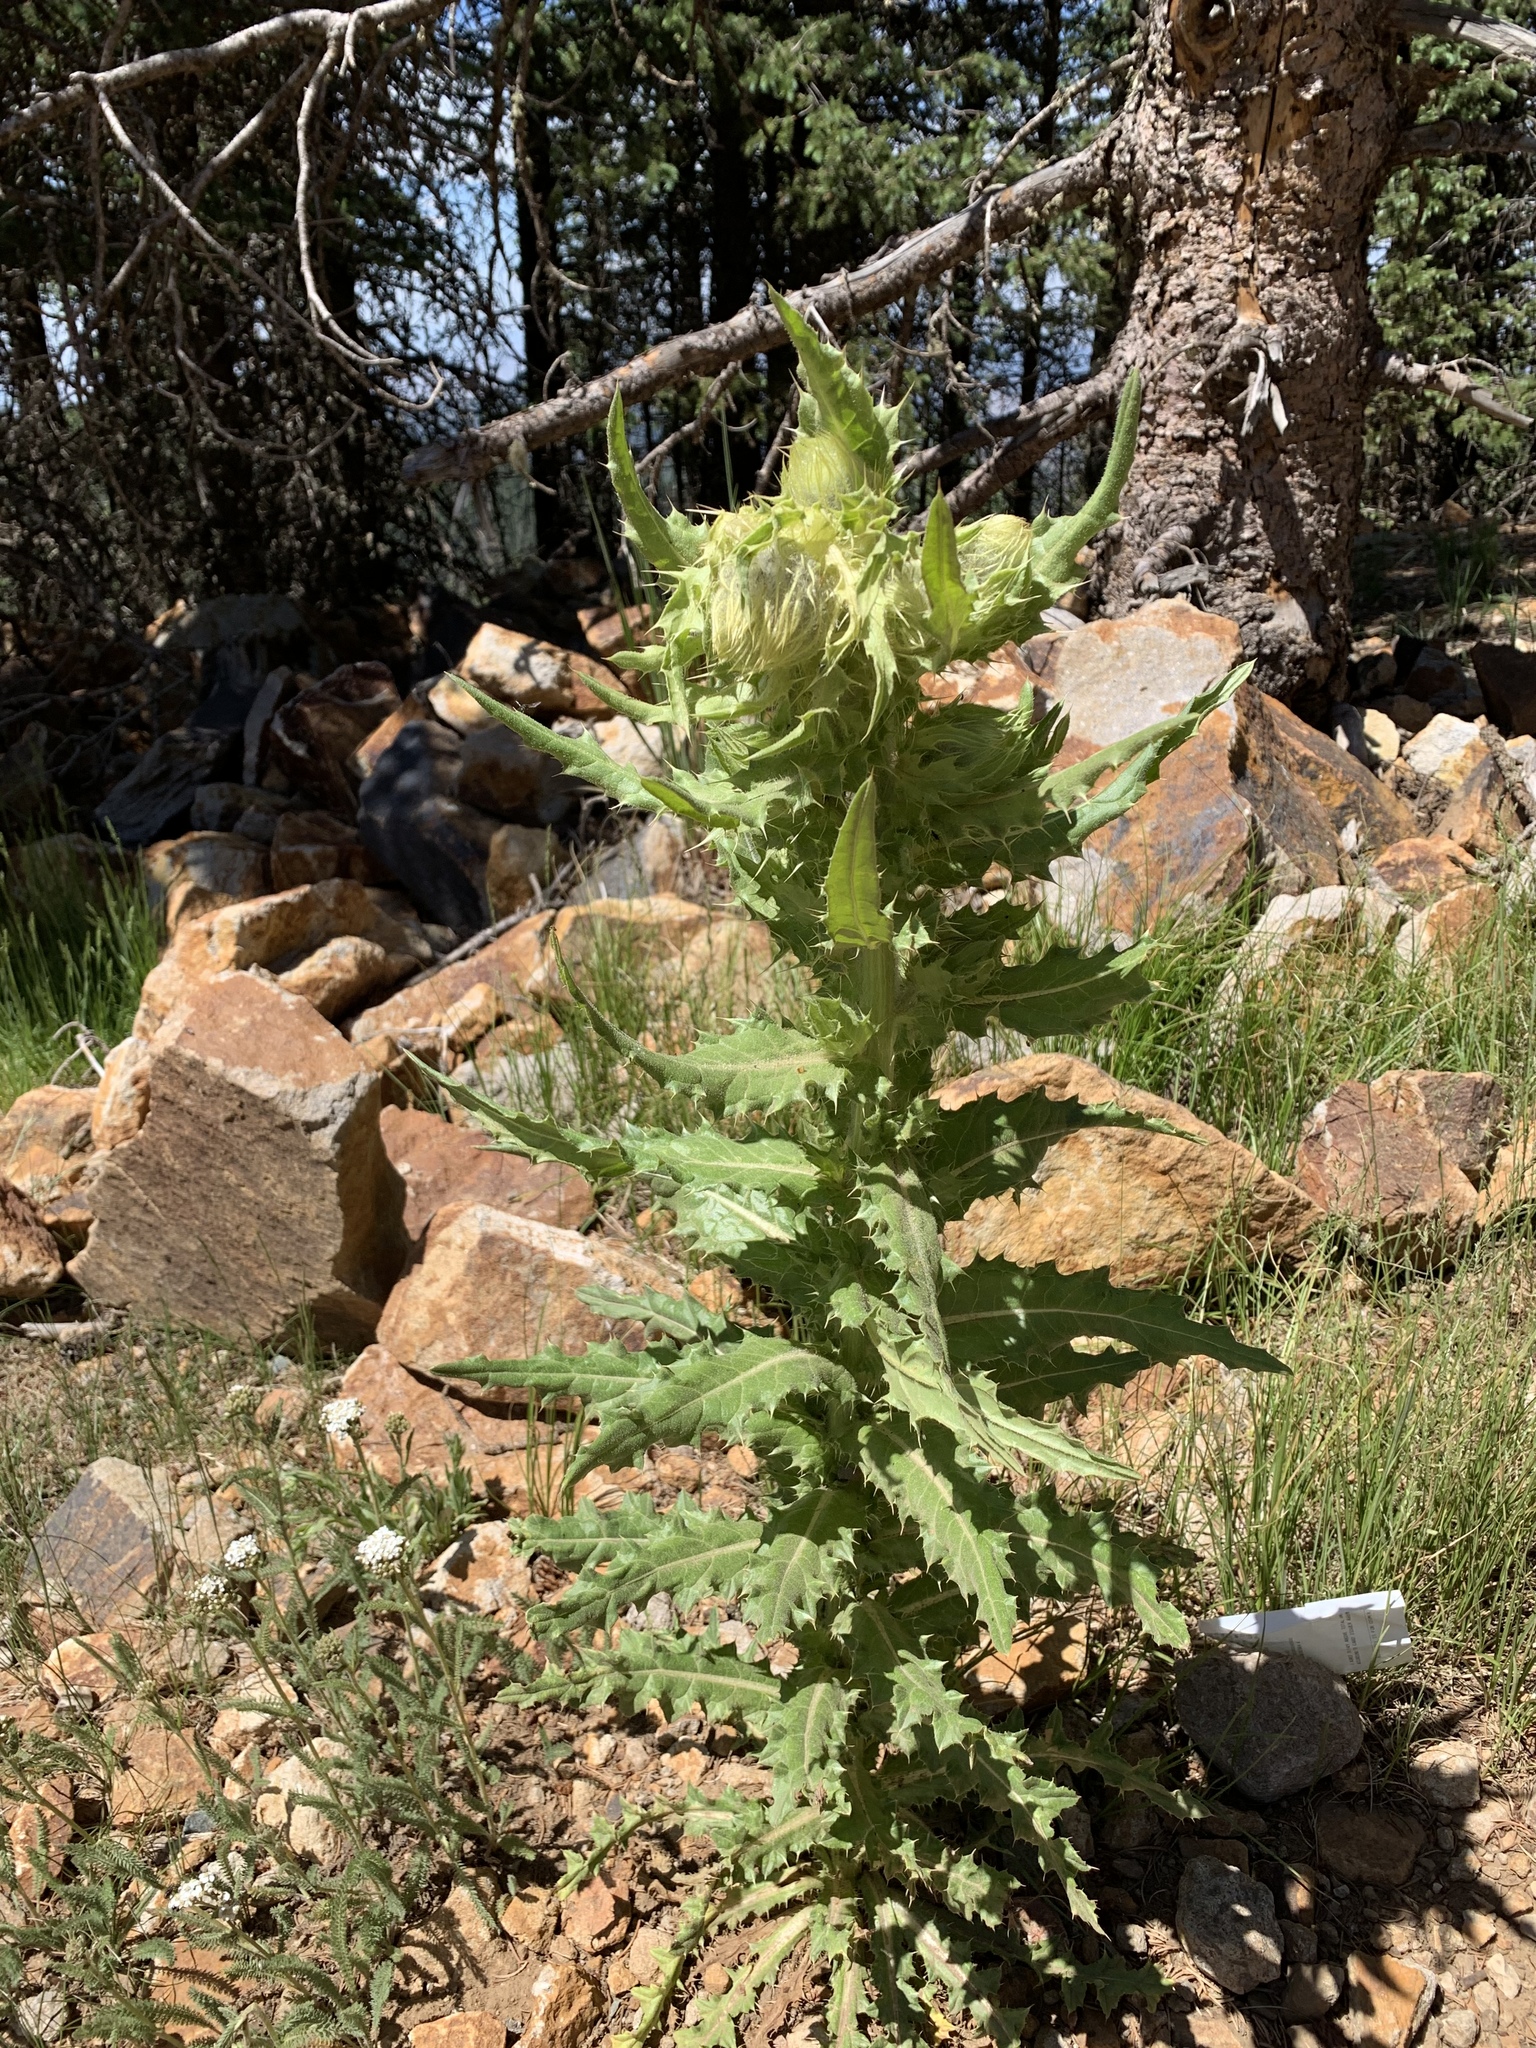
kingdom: Plantae
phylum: Tracheophyta
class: Magnoliopsida
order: Asterales
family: Asteraceae
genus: Cirsium
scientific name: Cirsium parryi
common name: Parry's thistle
